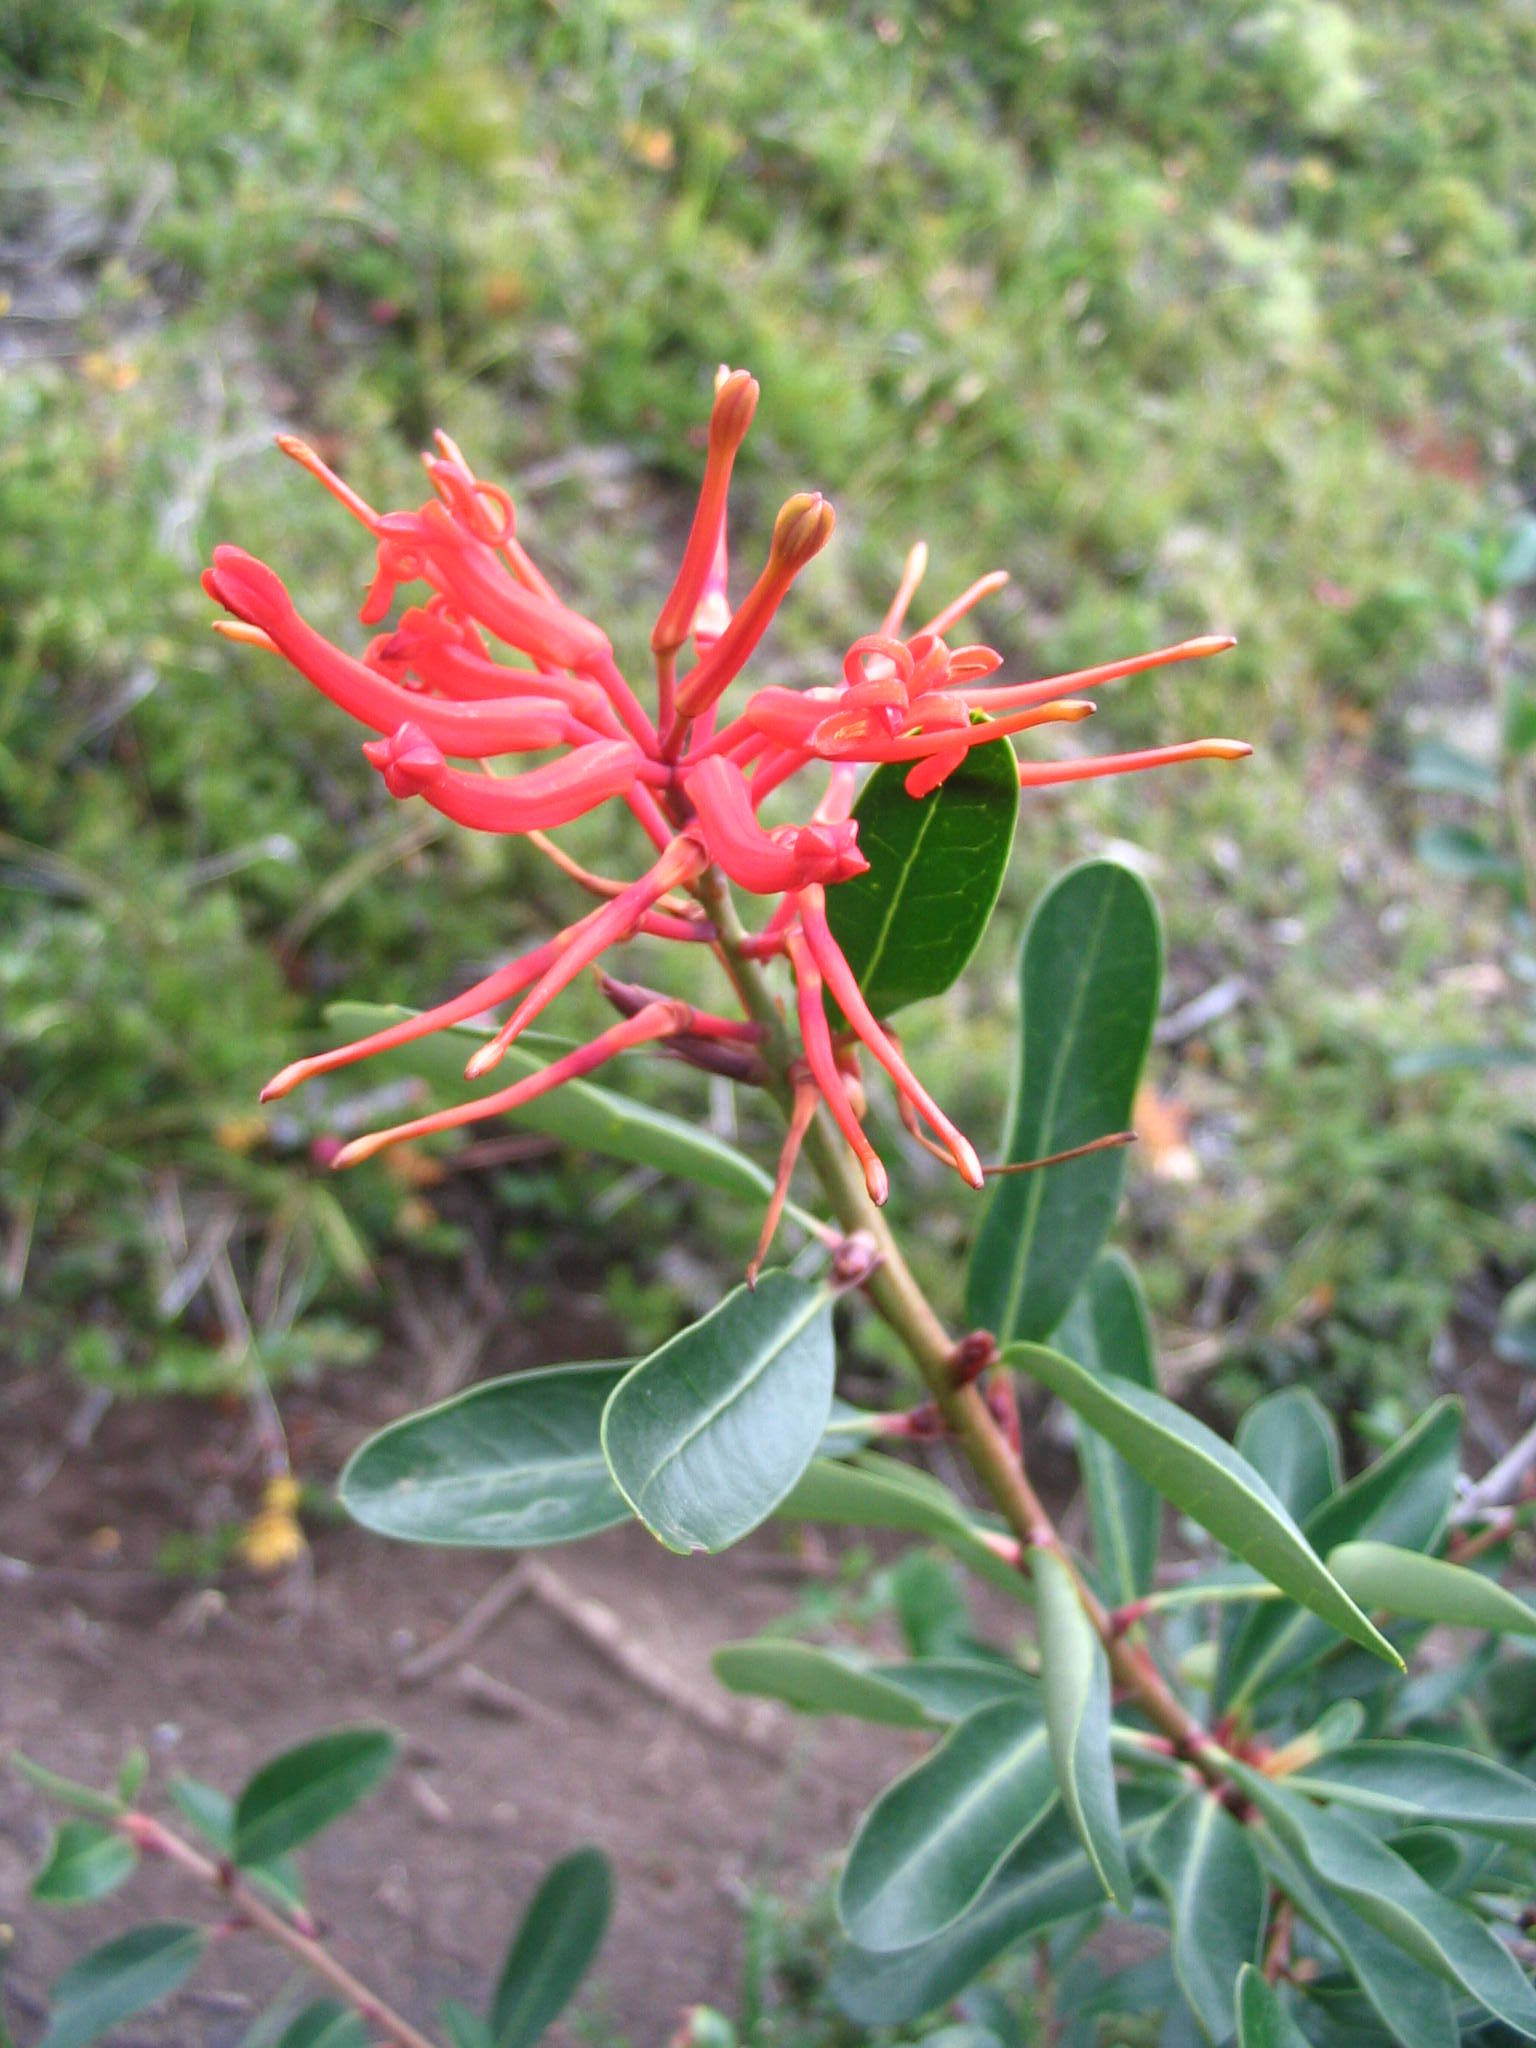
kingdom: Plantae
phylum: Tracheophyta
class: Magnoliopsida
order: Proteales
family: Proteaceae
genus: Embothrium
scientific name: Embothrium coccineum
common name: Chilean firebush
